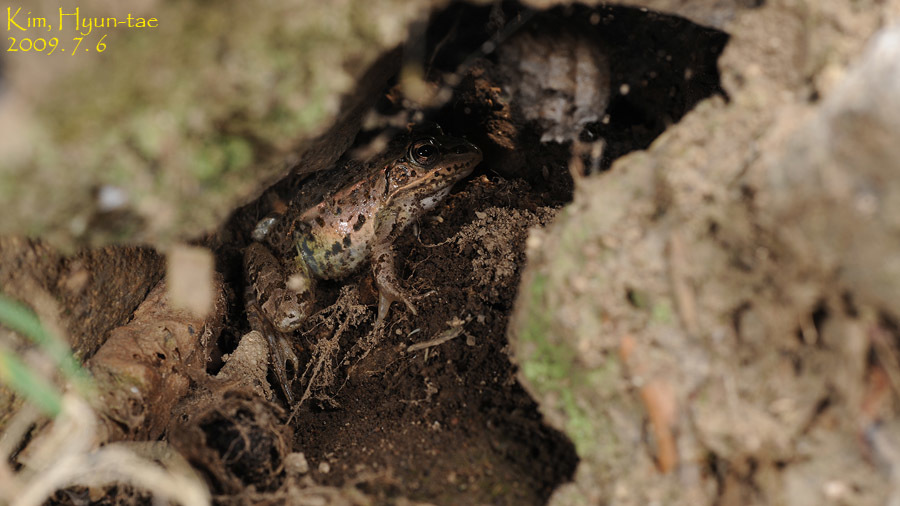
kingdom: Animalia
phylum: Chordata
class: Amphibia
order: Anura
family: Ranidae
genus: Pelophylax
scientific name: Pelophylax nigromaculatus
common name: Black-spotted pond frog
